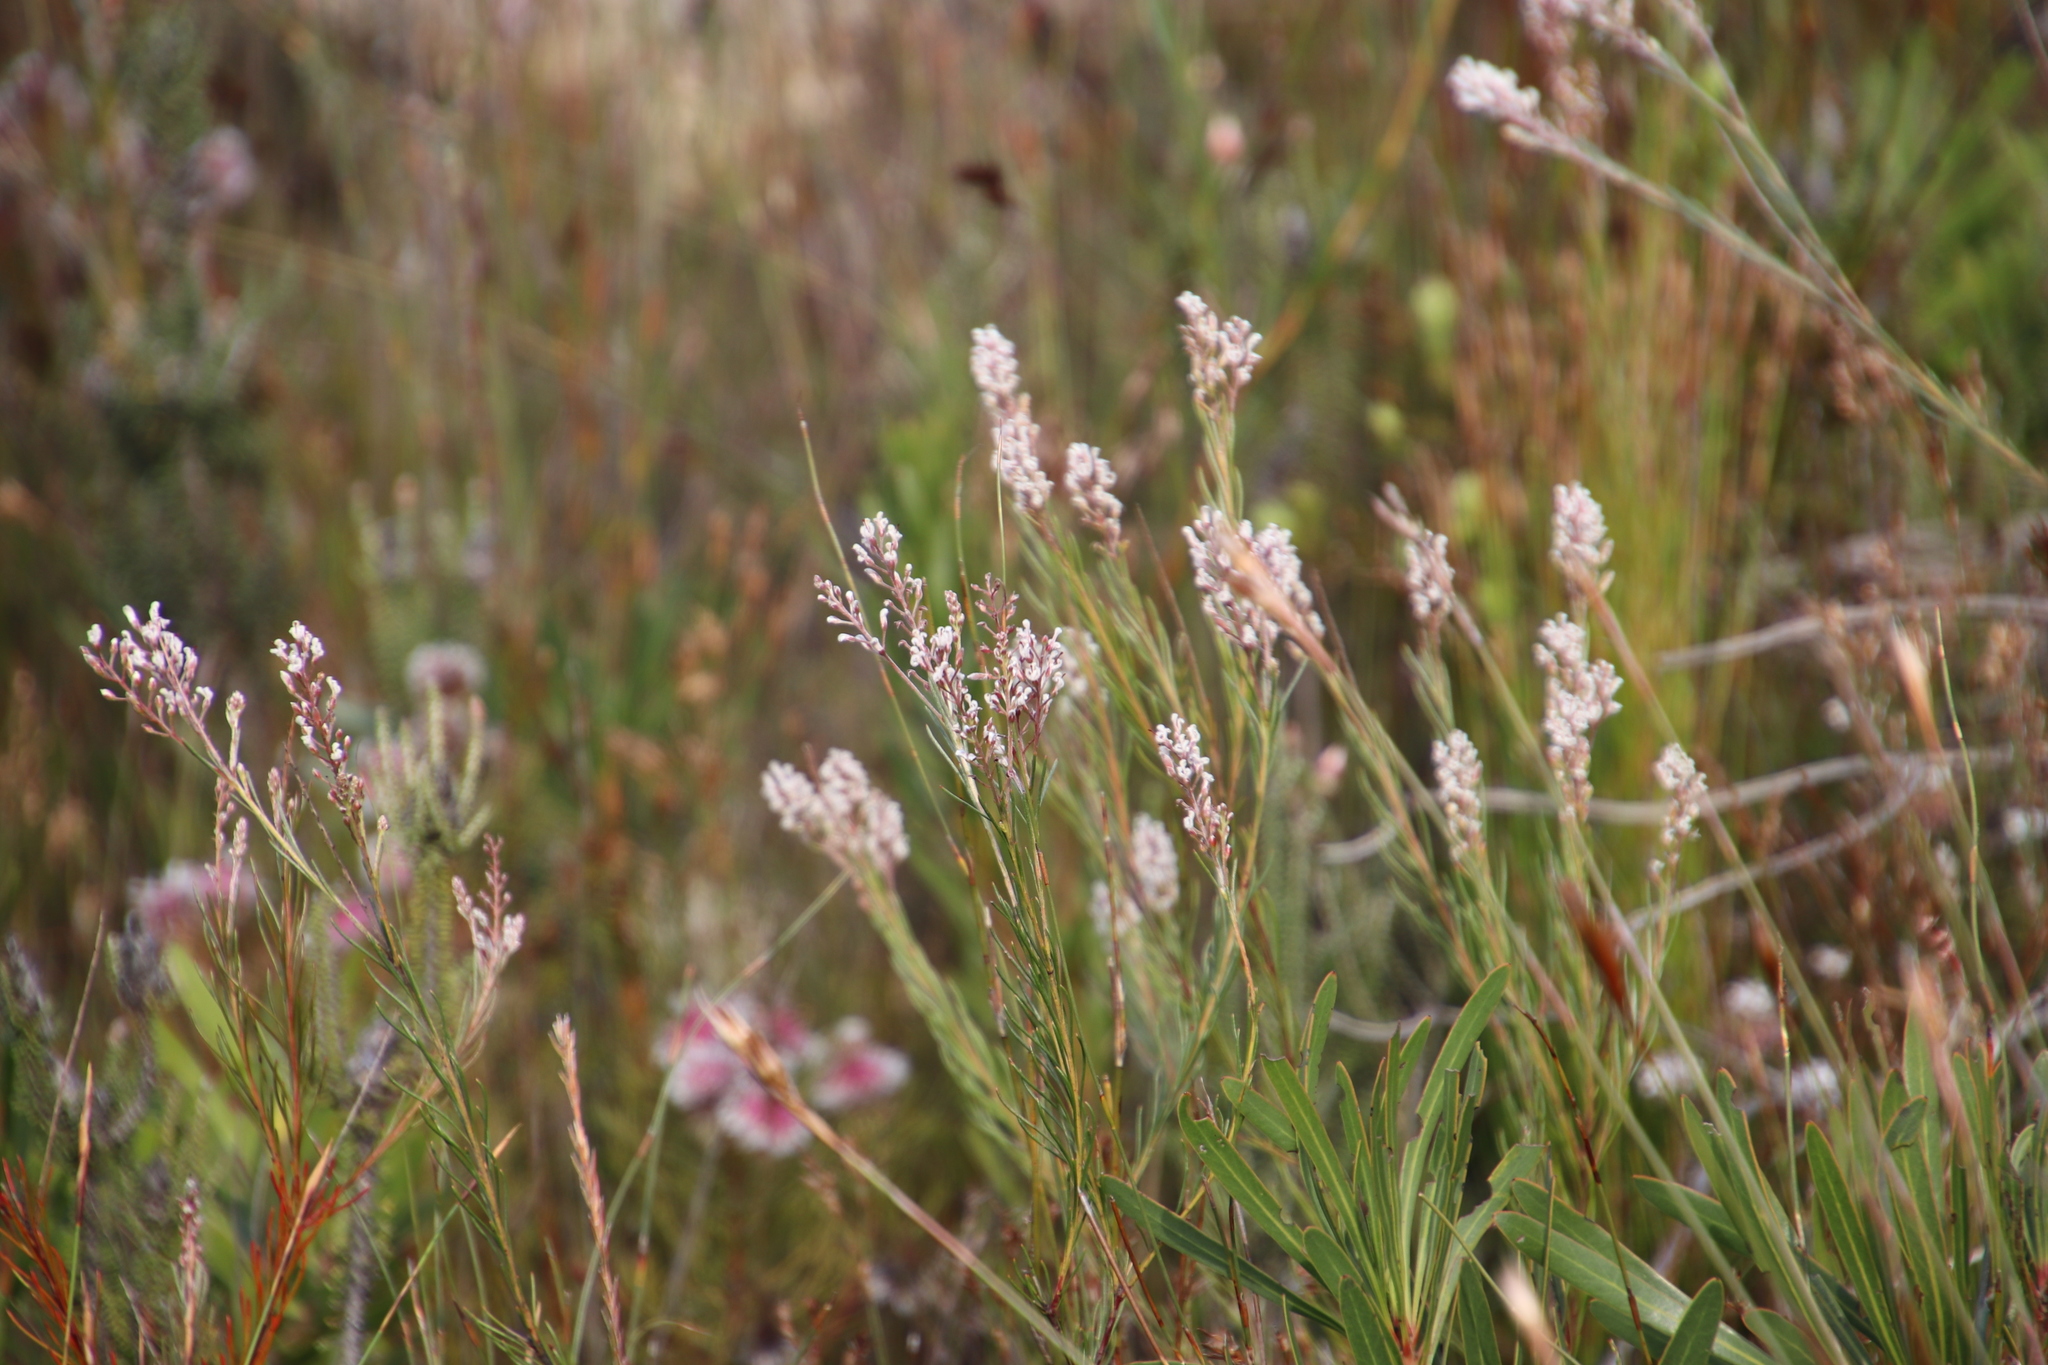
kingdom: Plantae
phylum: Tracheophyta
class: Magnoliopsida
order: Proteales
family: Proteaceae
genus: Spatalla
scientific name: Spatalla racemosa
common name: Lax-stalked spoon
